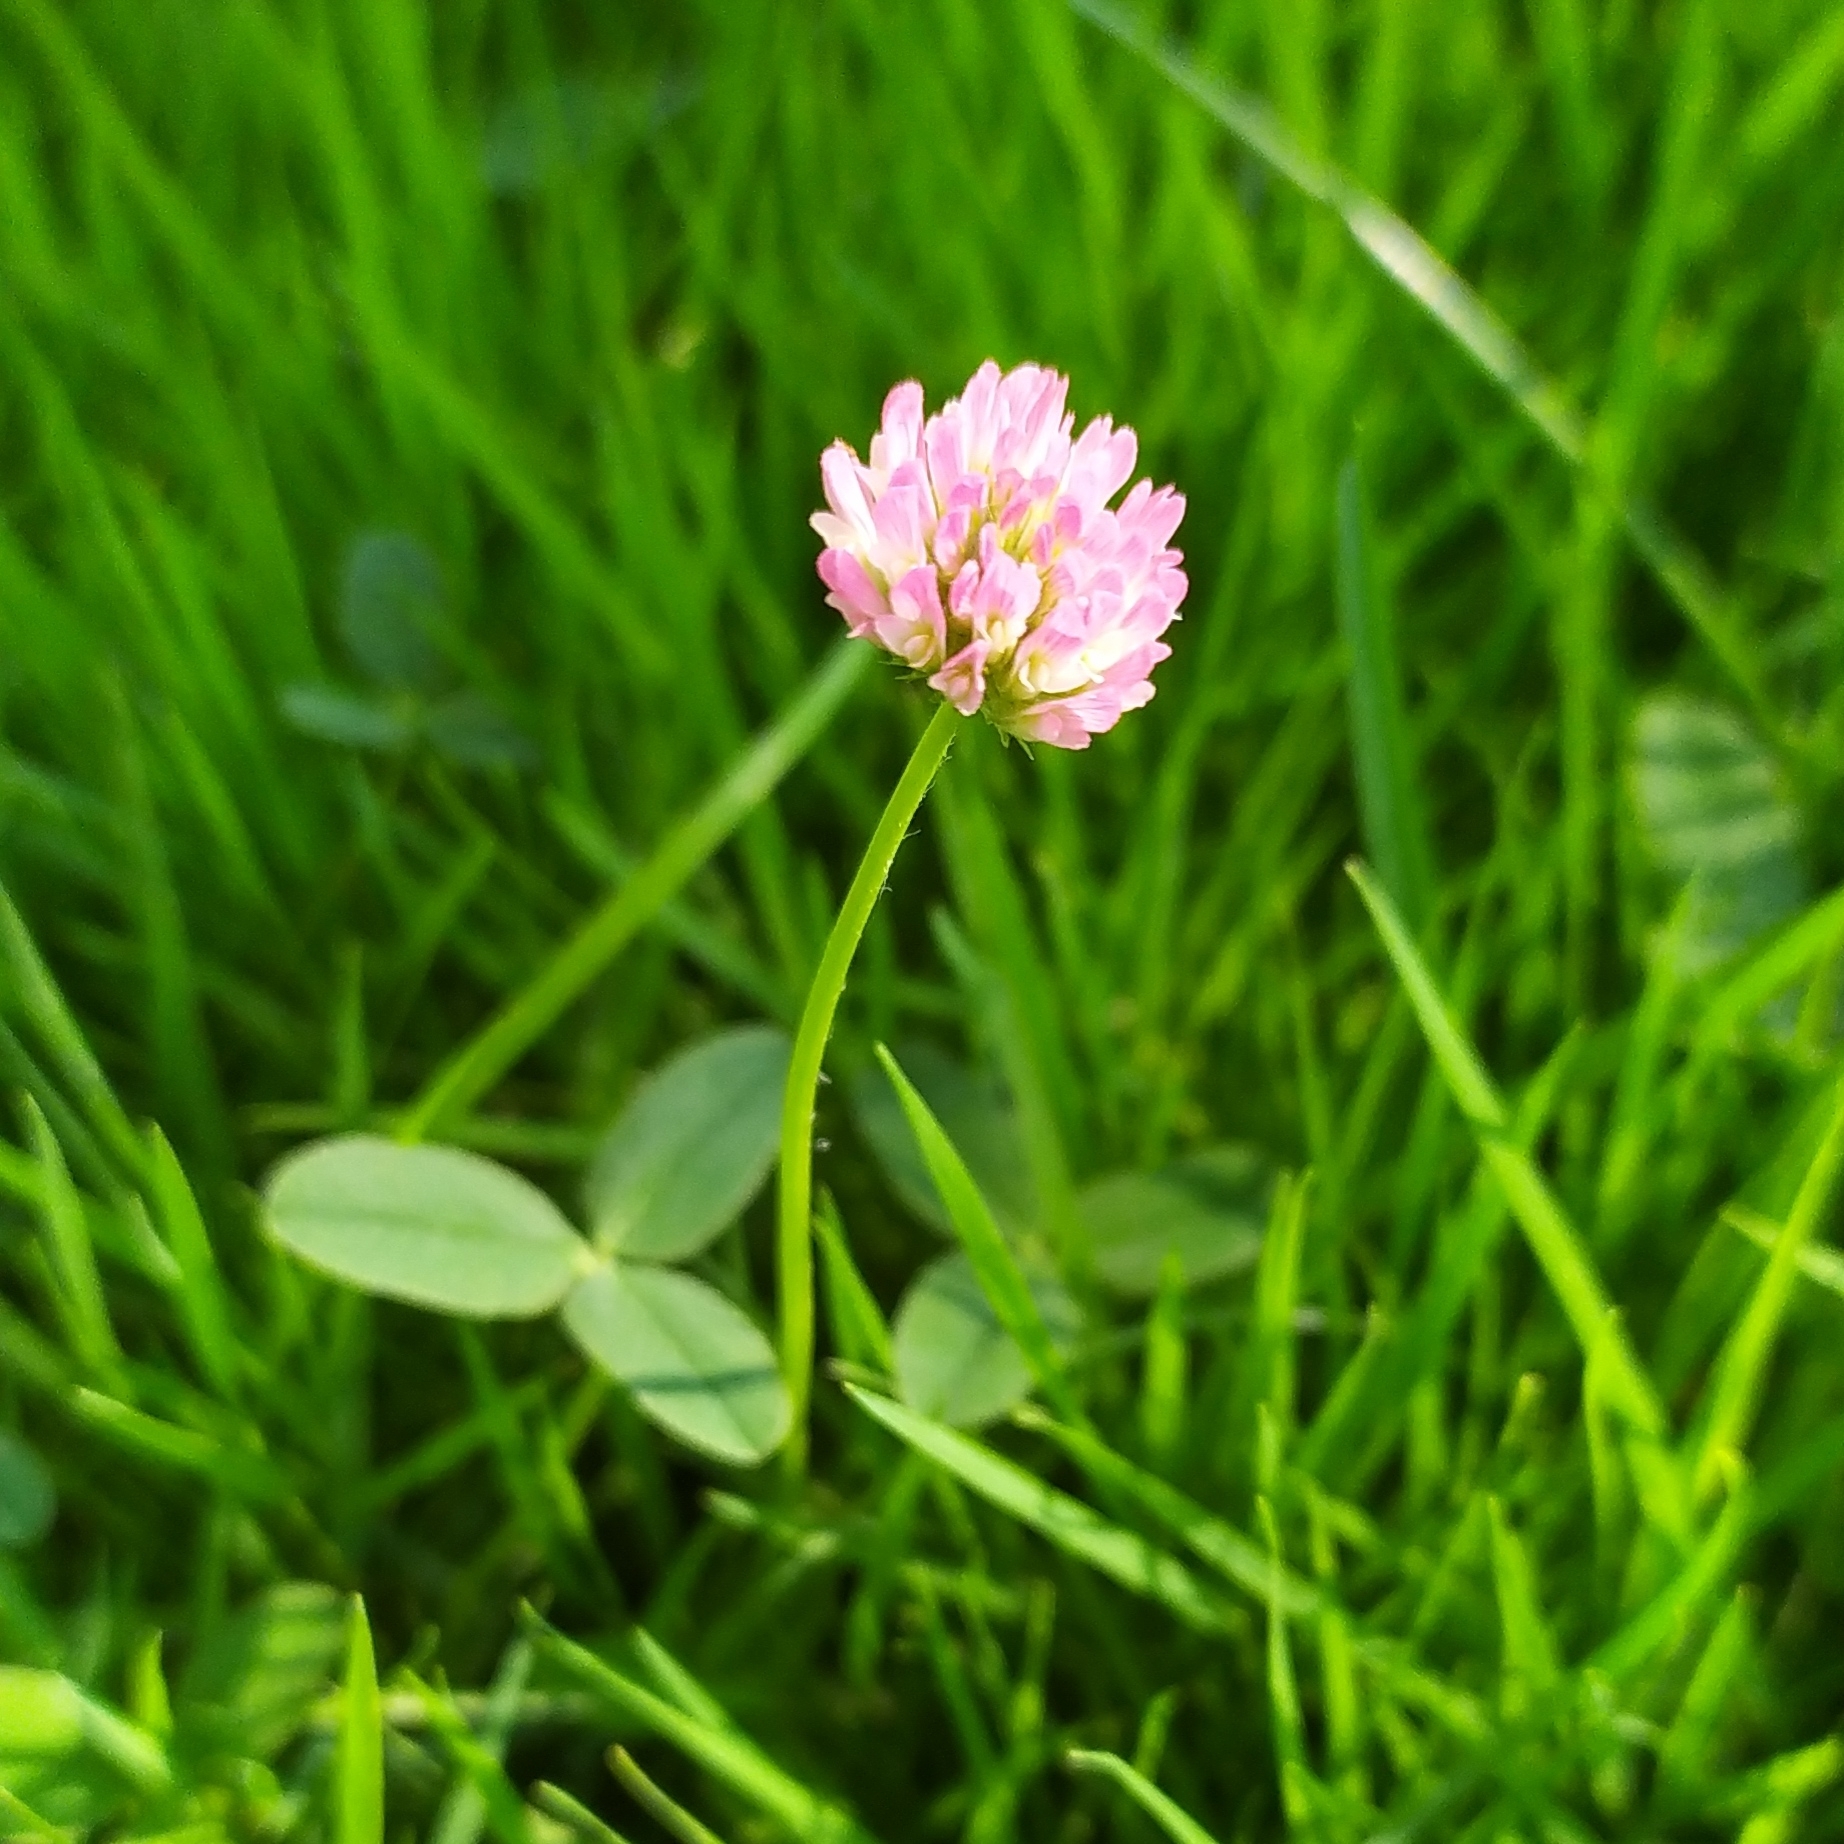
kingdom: Plantae
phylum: Tracheophyta
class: Magnoliopsida
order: Fabales
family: Fabaceae
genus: Trifolium
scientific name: Trifolium fragiferum
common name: Strawberry clover
